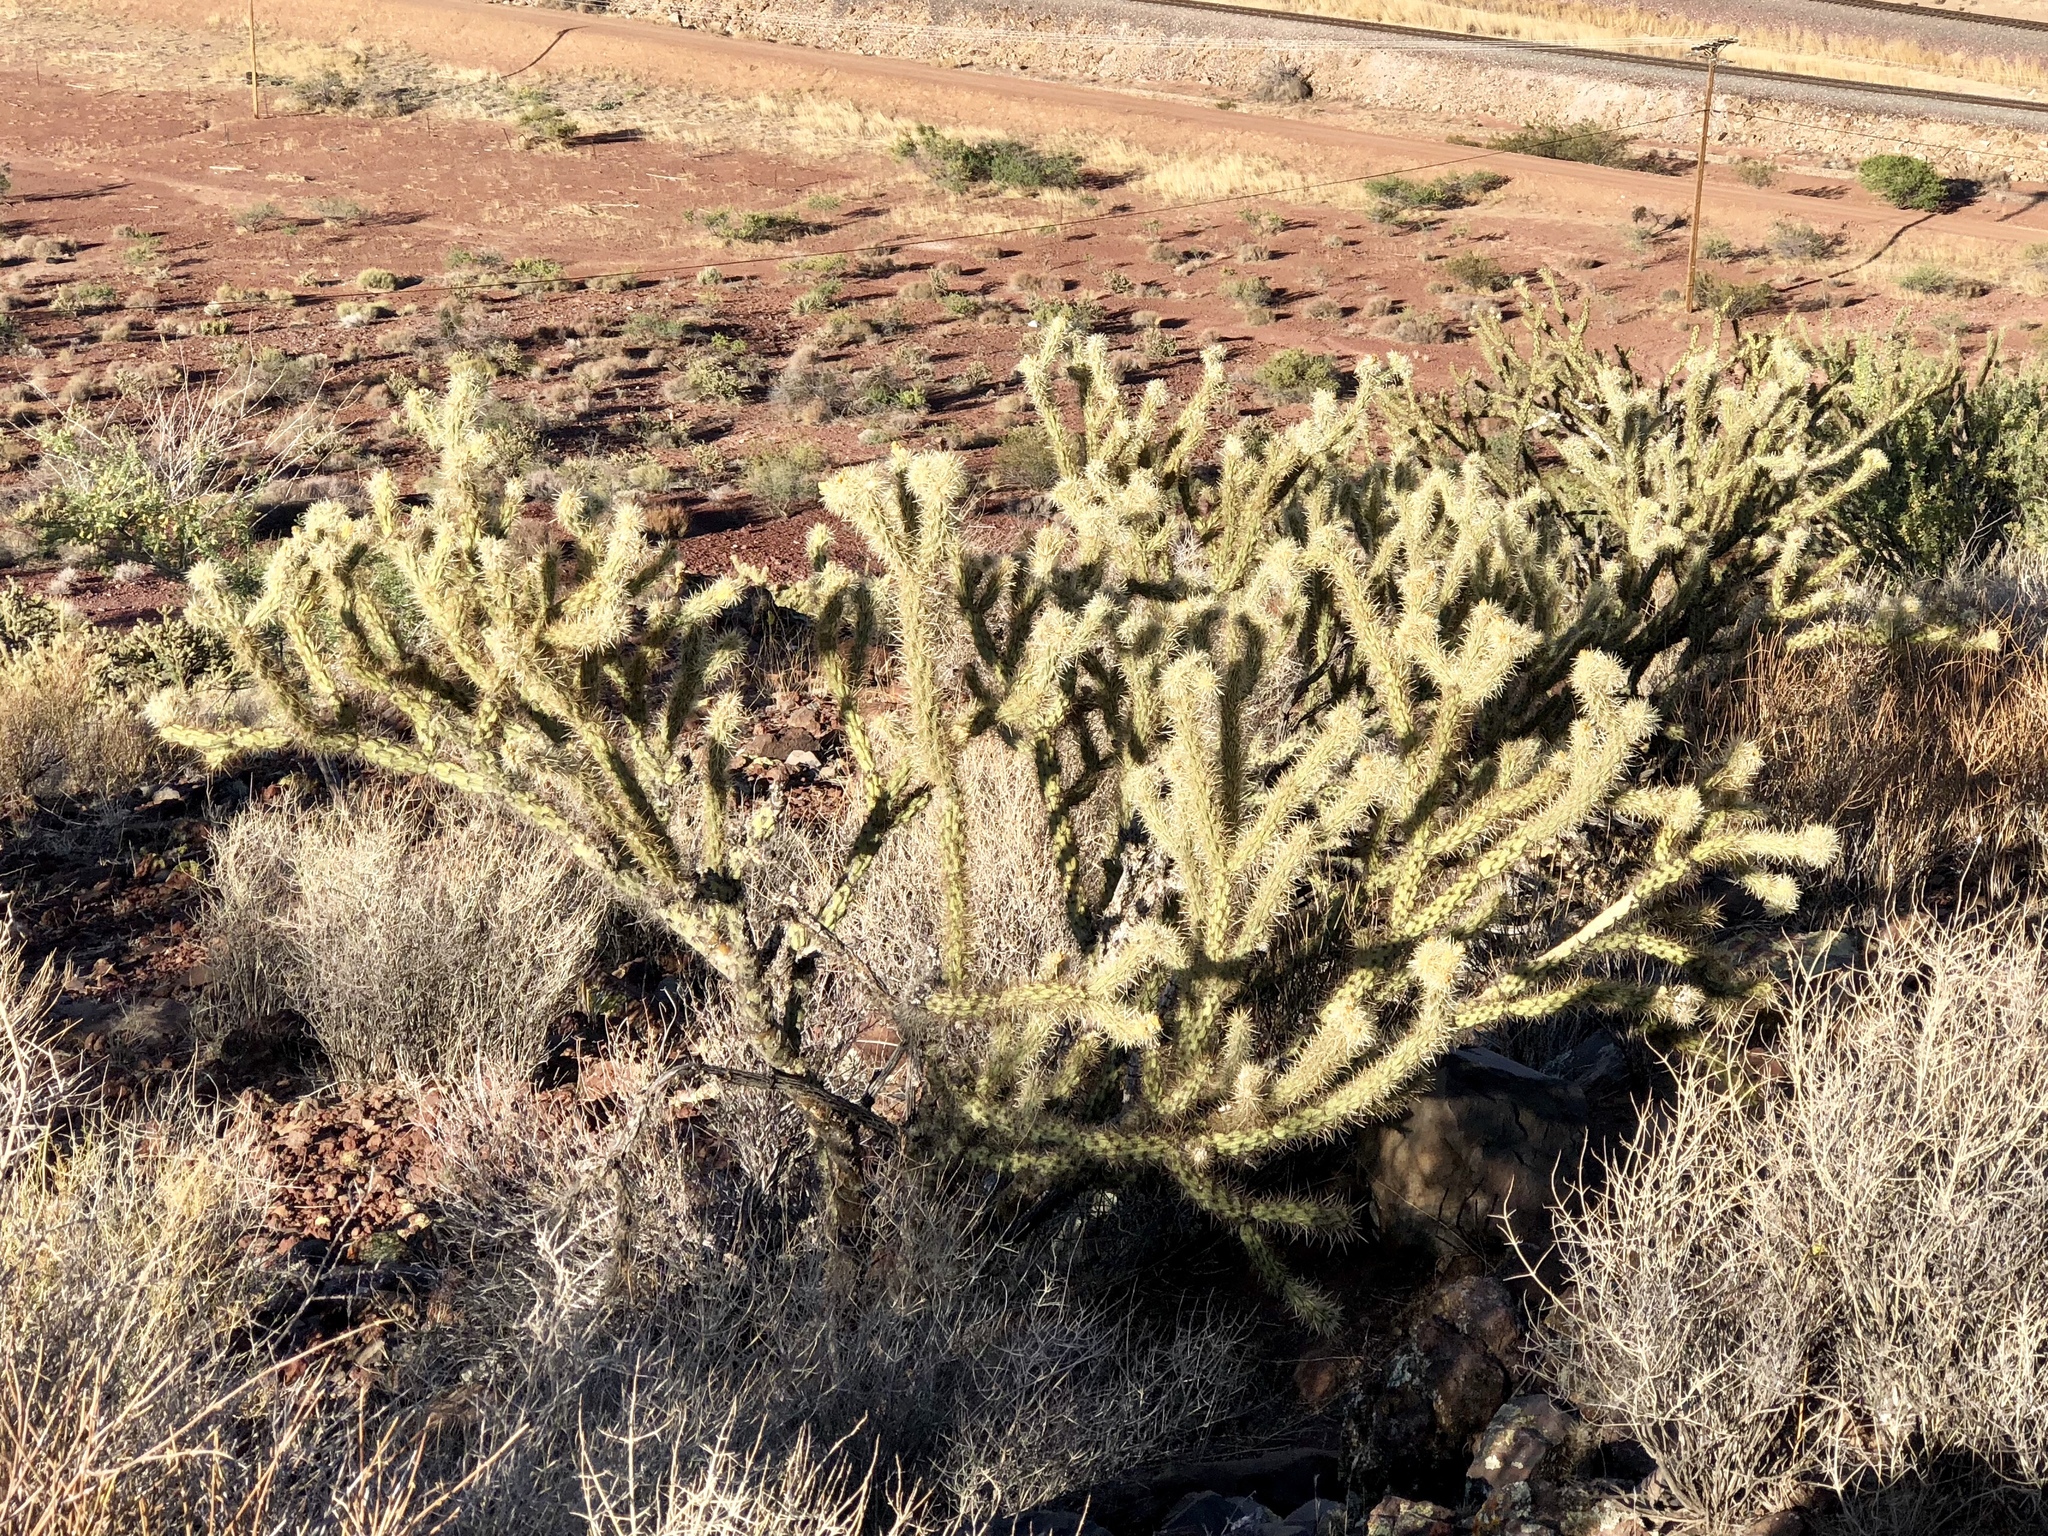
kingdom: Plantae
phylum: Tracheophyta
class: Magnoliopsida
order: Caryophyllales
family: Cactaceae
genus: Cylindropuntia
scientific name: Cylindropuntia acanthocarpa
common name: Buckhorn cholla
